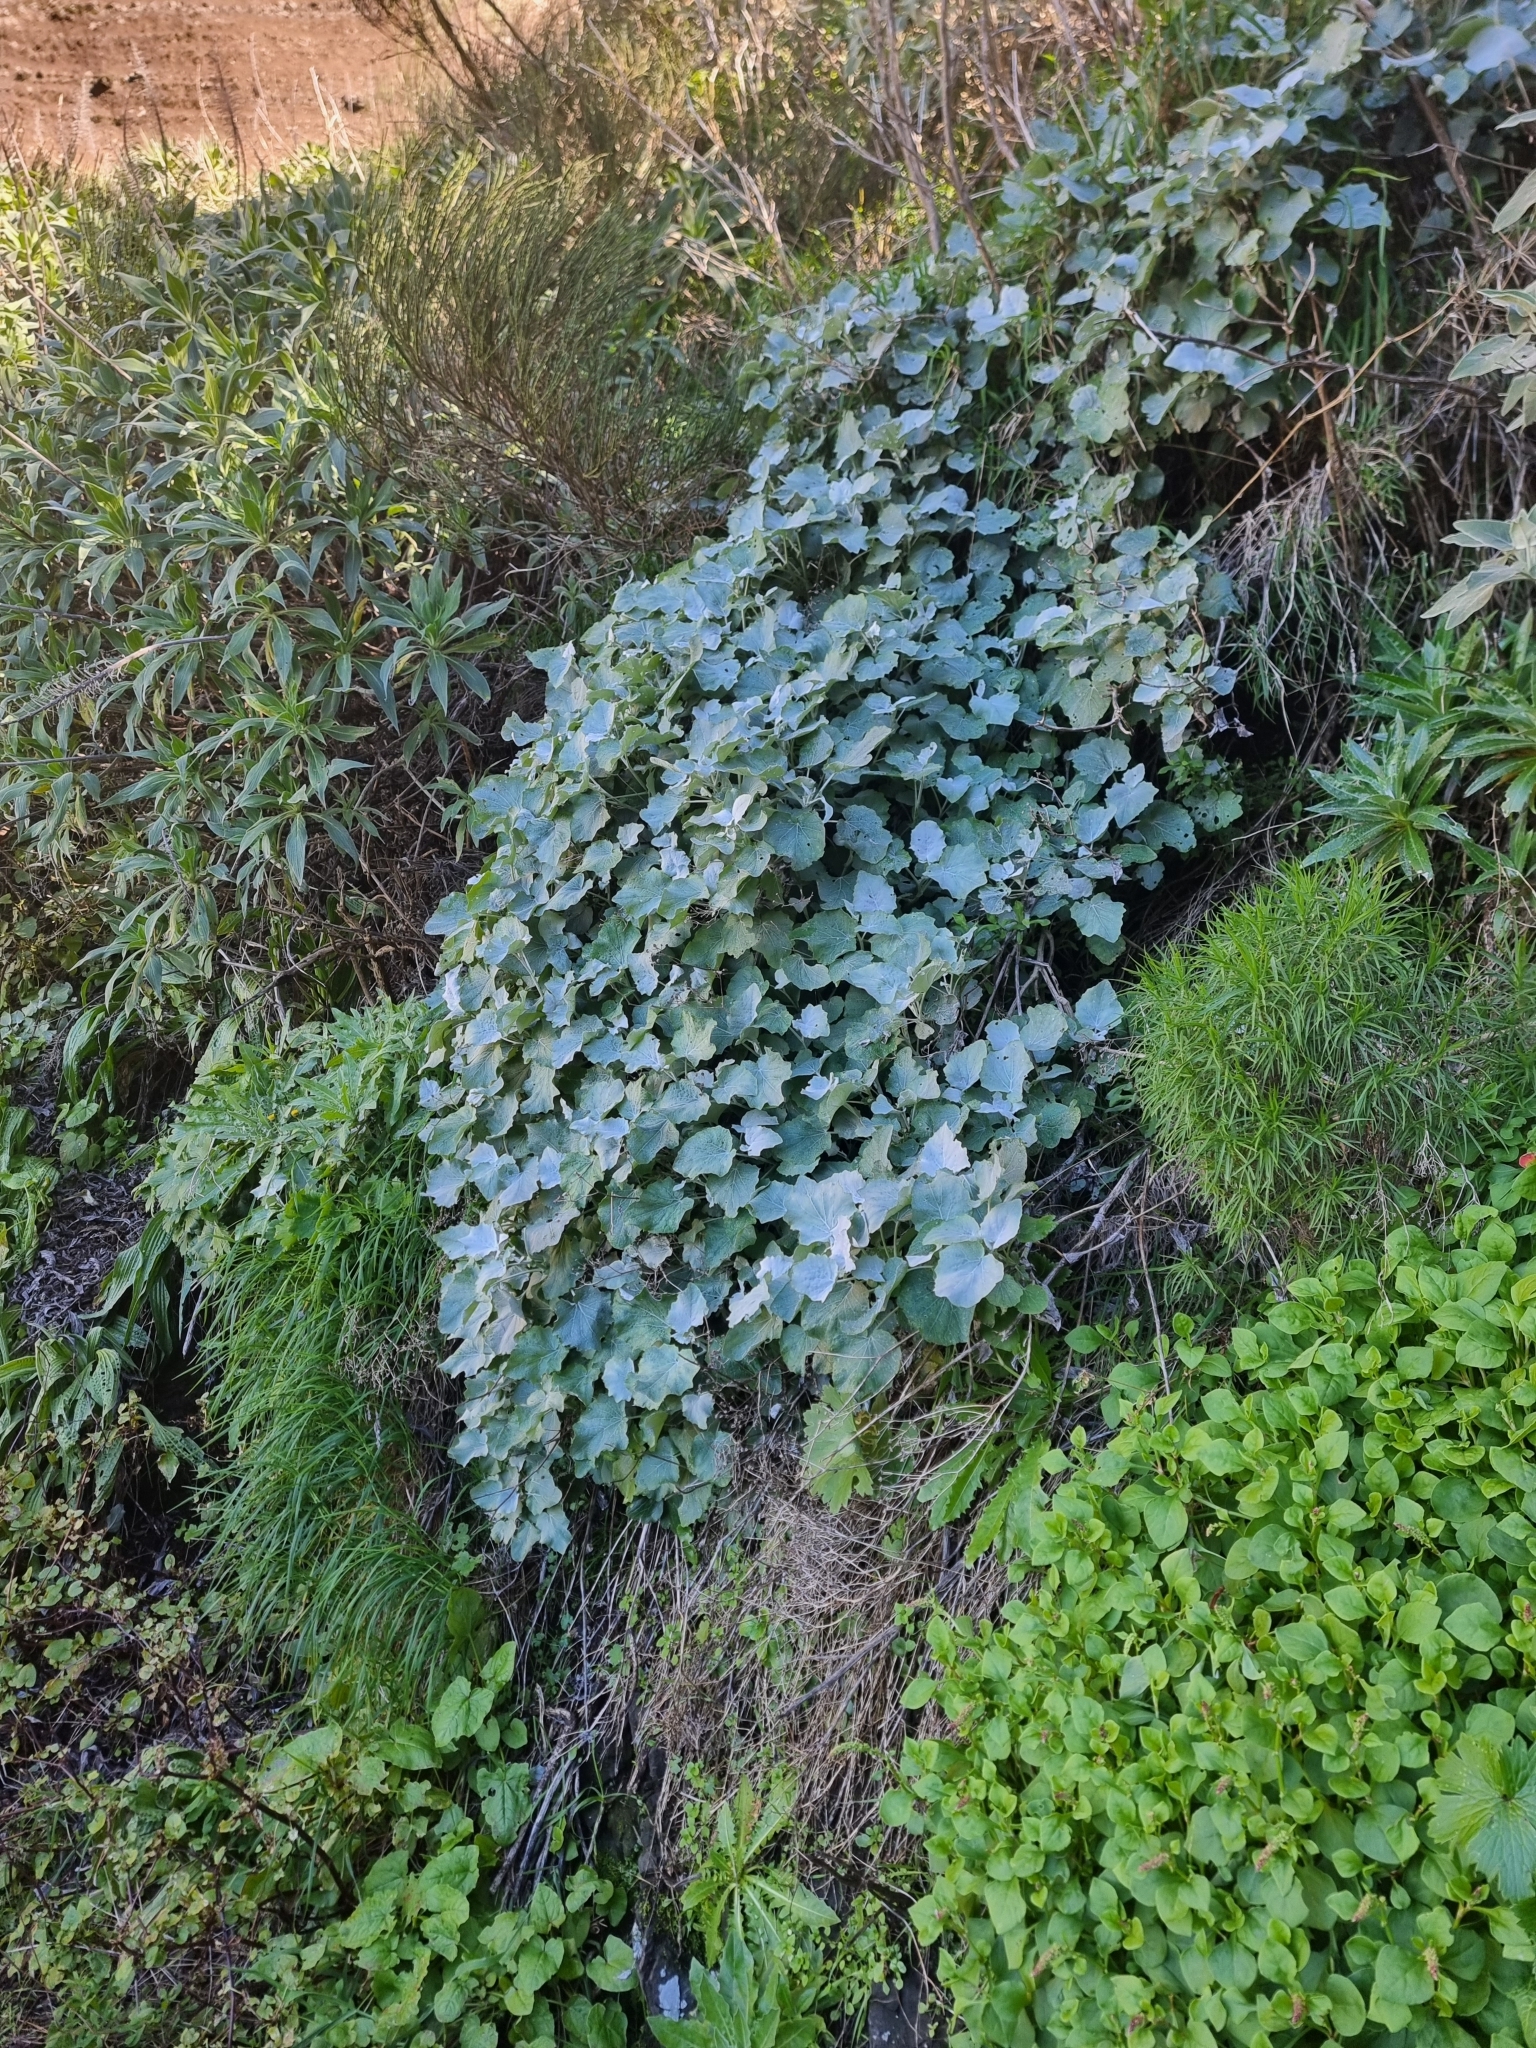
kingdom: Plantae
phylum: Tracheophyta
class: Magnoliopsida
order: Asterales
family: Asteraceae
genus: Pericallis
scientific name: Pericallis aurita
